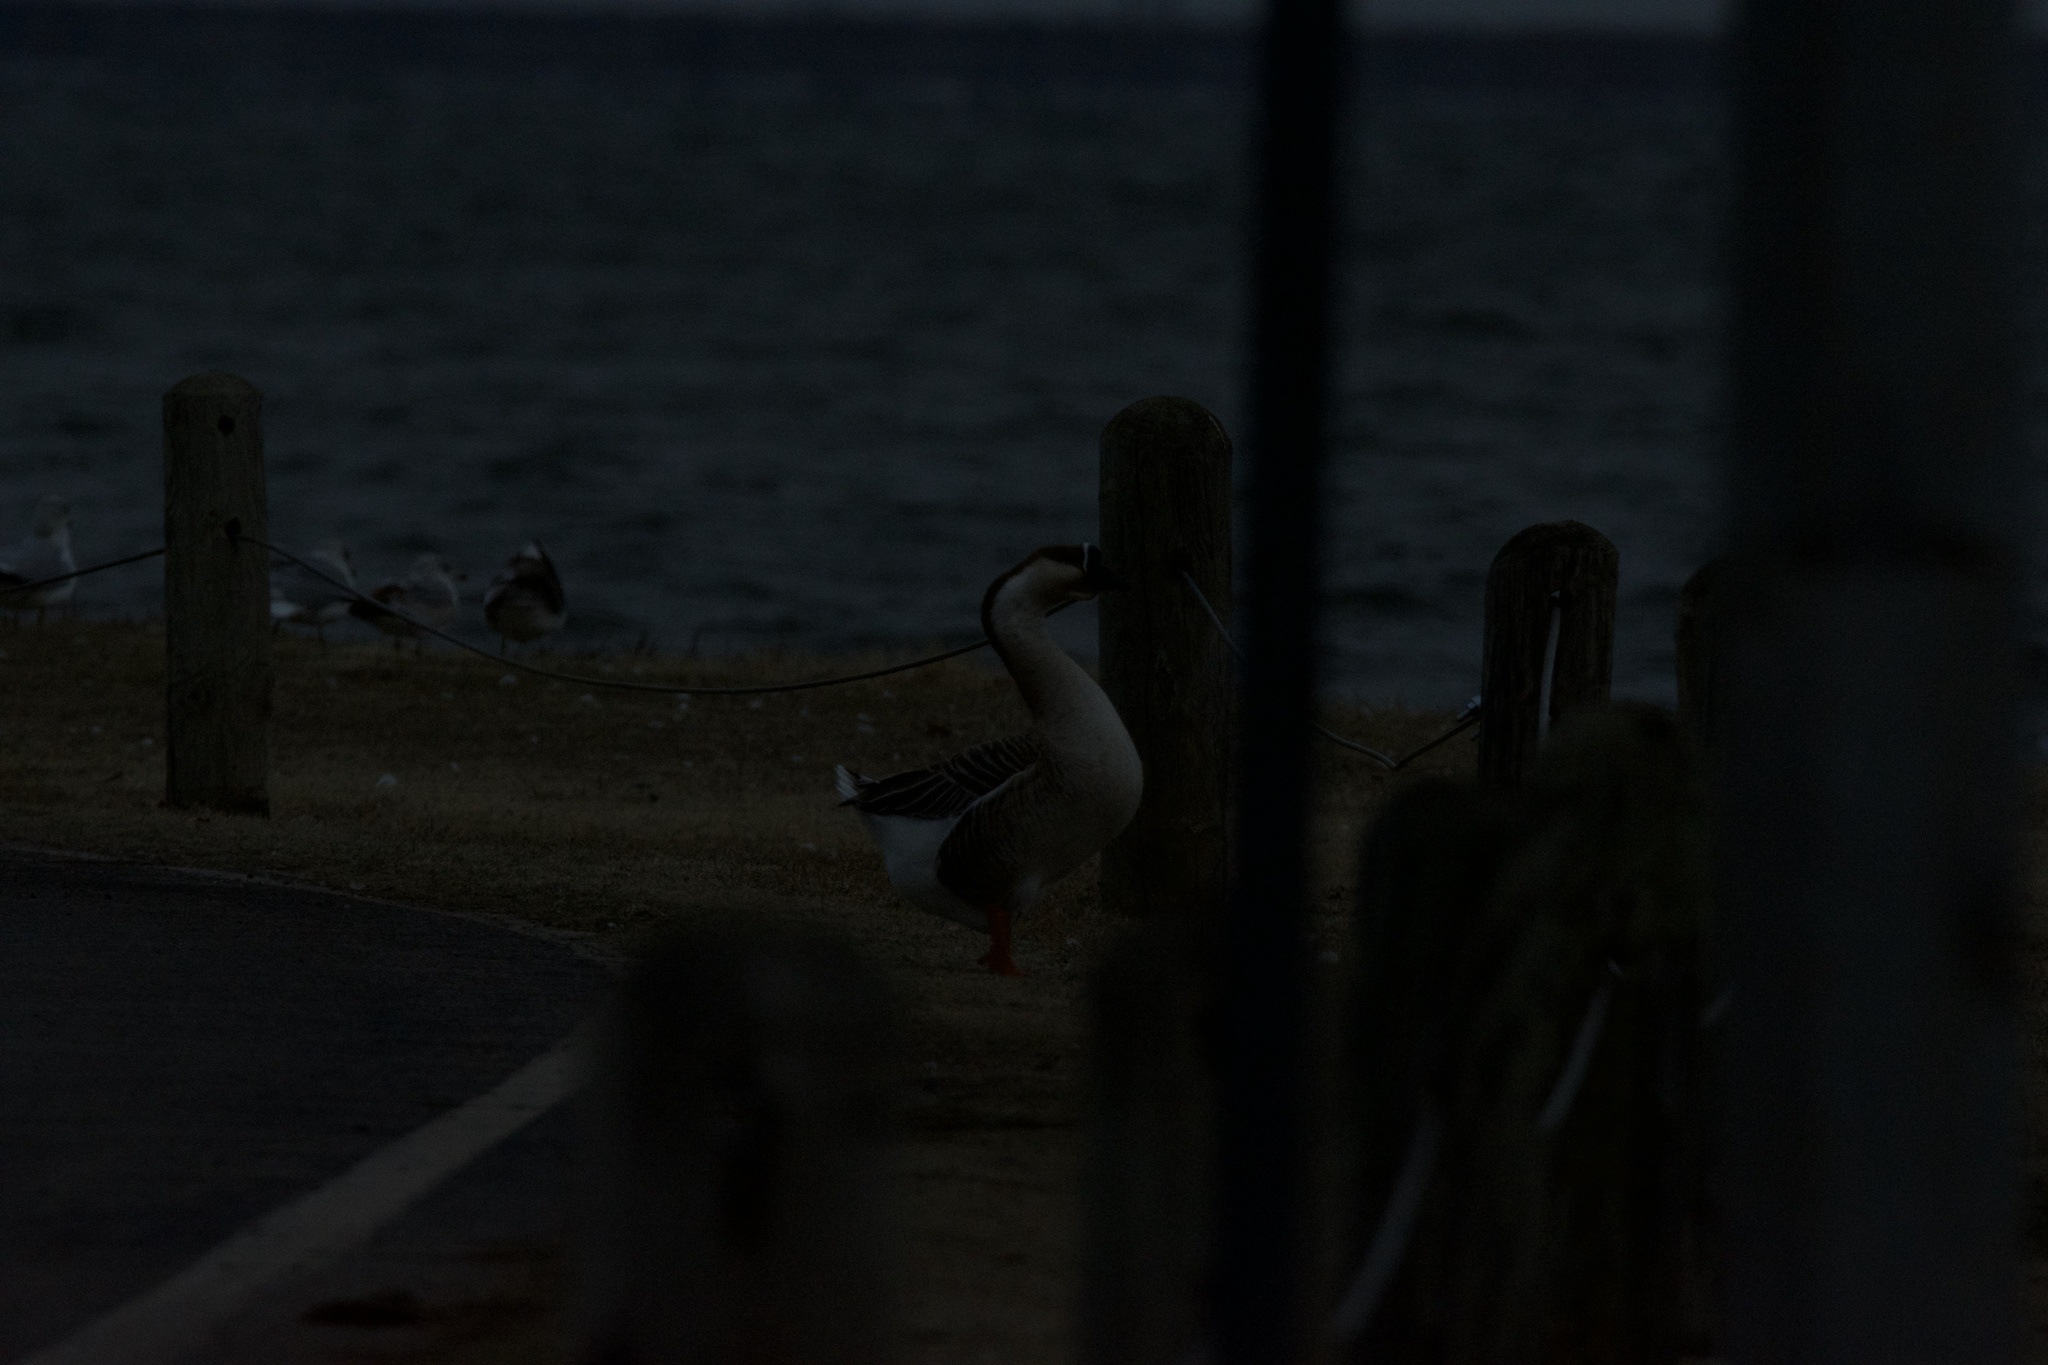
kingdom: Animalia
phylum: Chordata
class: Aves
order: Anseriformes
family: Anatidae
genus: Anser
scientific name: Anser cygnoides
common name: Swan goose
